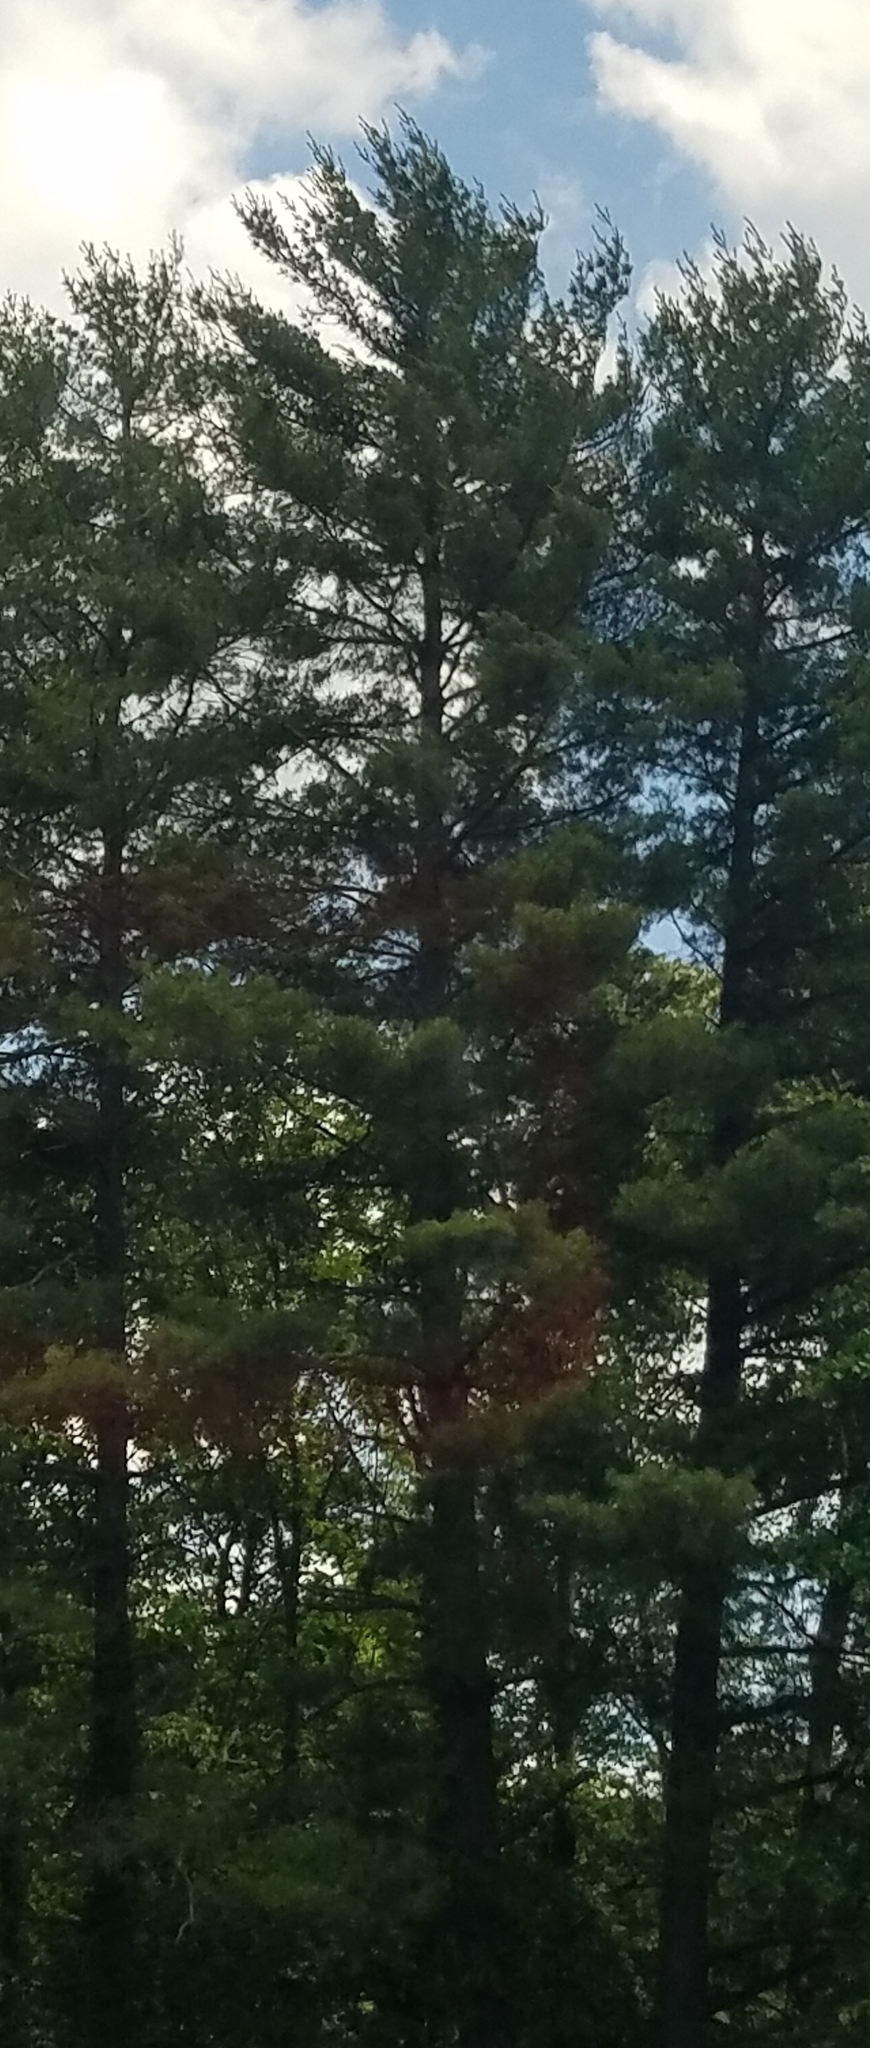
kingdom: Plantae
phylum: Tracheophyta
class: Pinopsida
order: Pinales
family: Pinaceae
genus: Pinus
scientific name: Pinus strobus
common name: Weymouth pine
